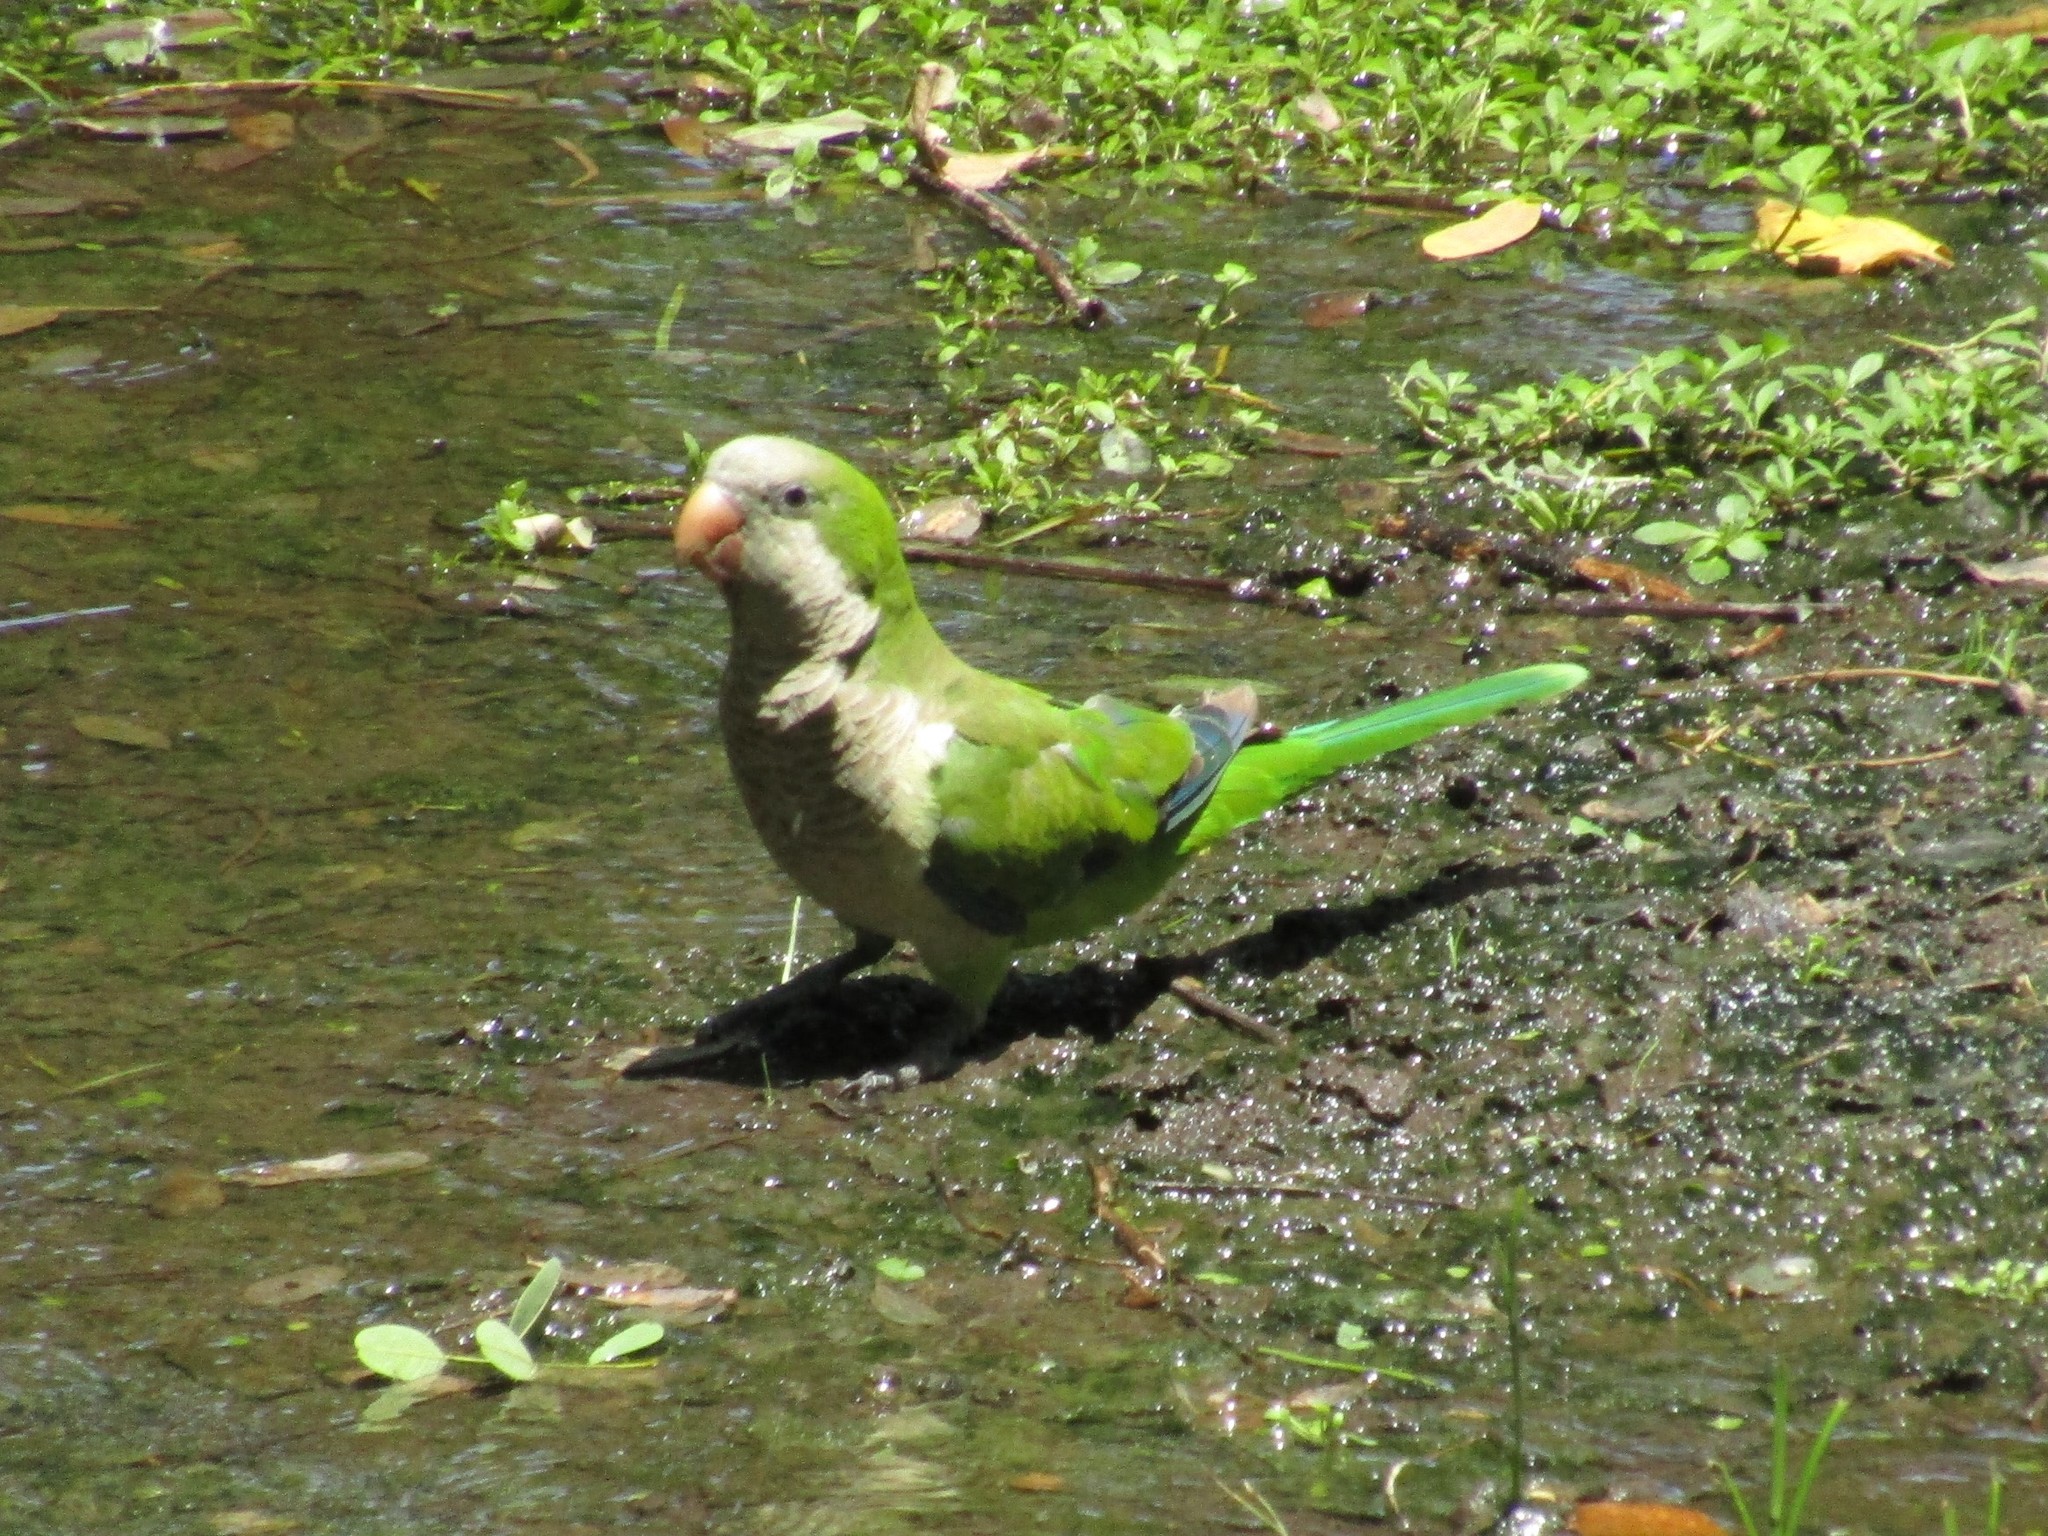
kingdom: Animalia
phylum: Chordata
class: Aves
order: Psittaciformes
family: Psittacidae
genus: Myiopsitta
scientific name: Myiopsitta monachus
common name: Monk parakeet
